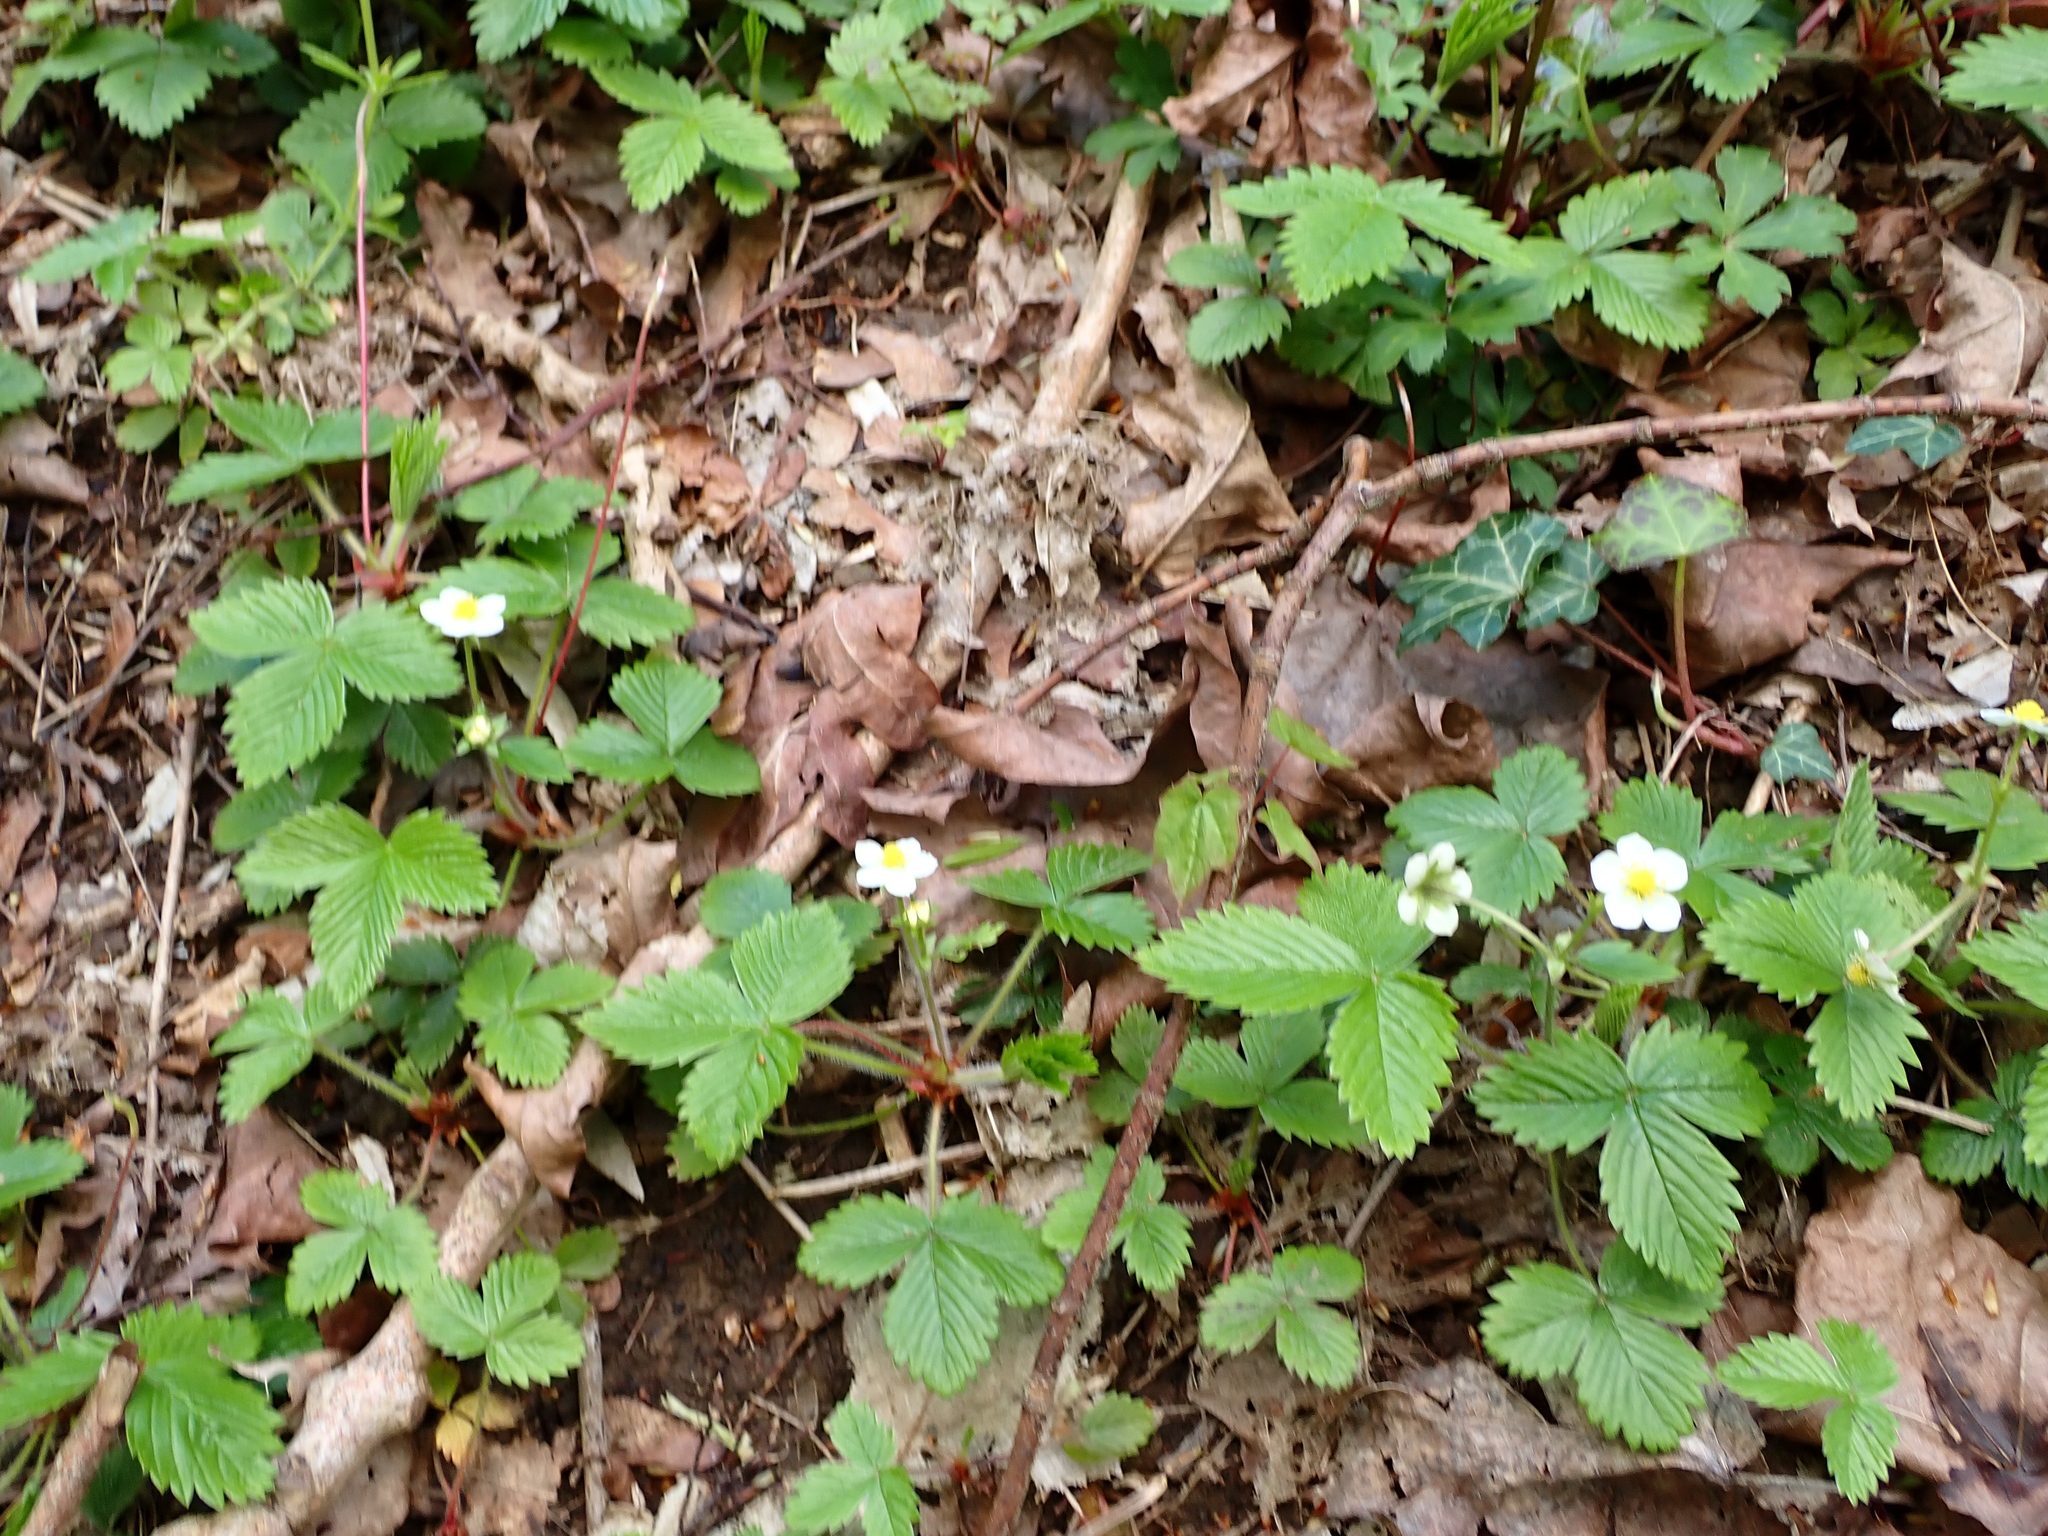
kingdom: Plantae
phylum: Tracheophyta
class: Magnoliopsida
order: Rosales
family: Rosaceae
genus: Fragaria
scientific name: Fragaria vesca
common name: Wild strawberry
